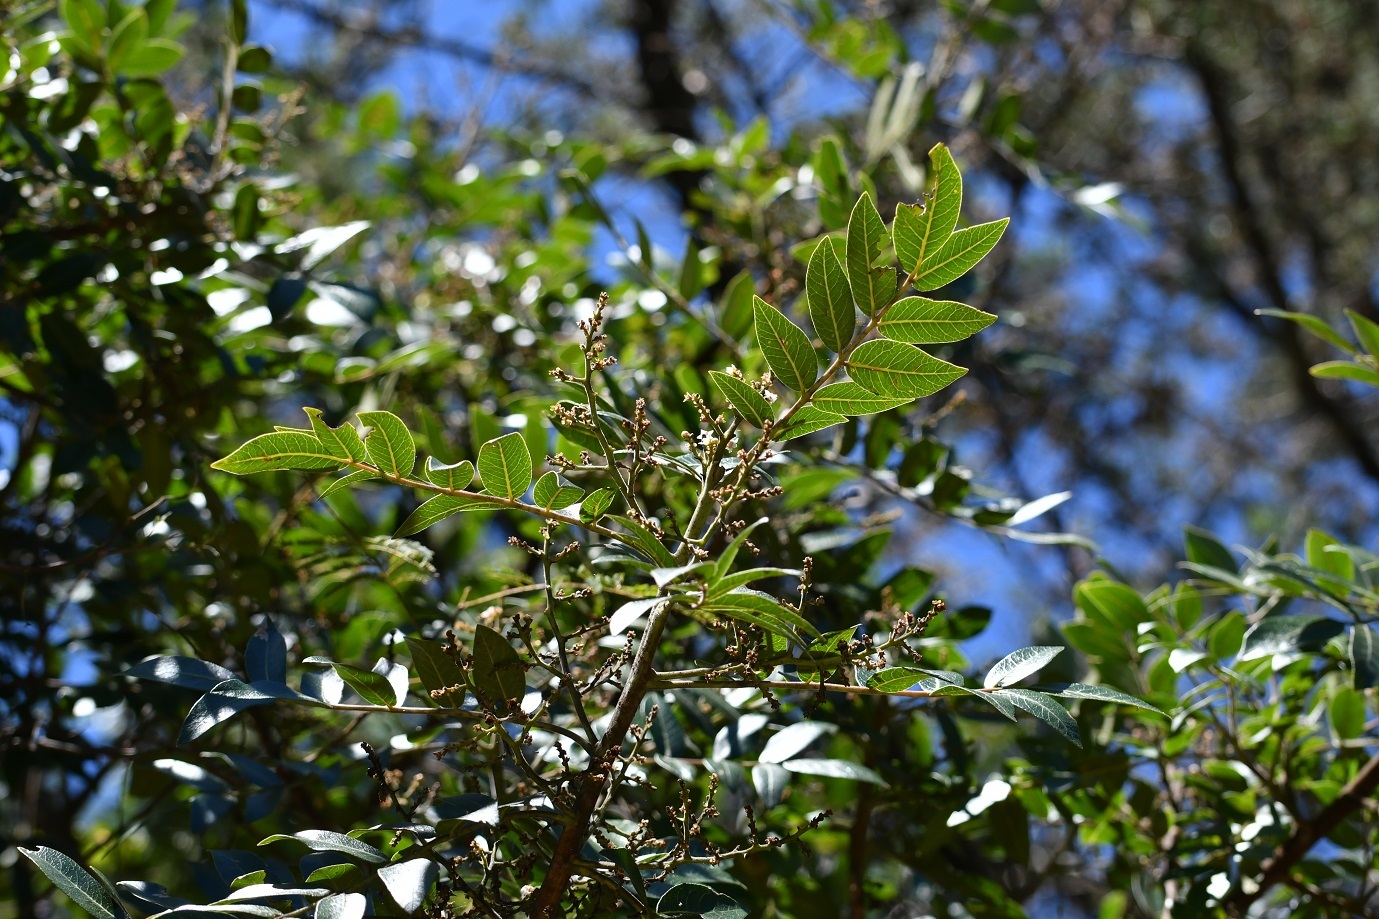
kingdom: Plantae
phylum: Tracheophyta
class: Magnoliopsida
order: Sapindales
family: Anacardiaceae
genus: Rhus
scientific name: Rhus schiedeana
